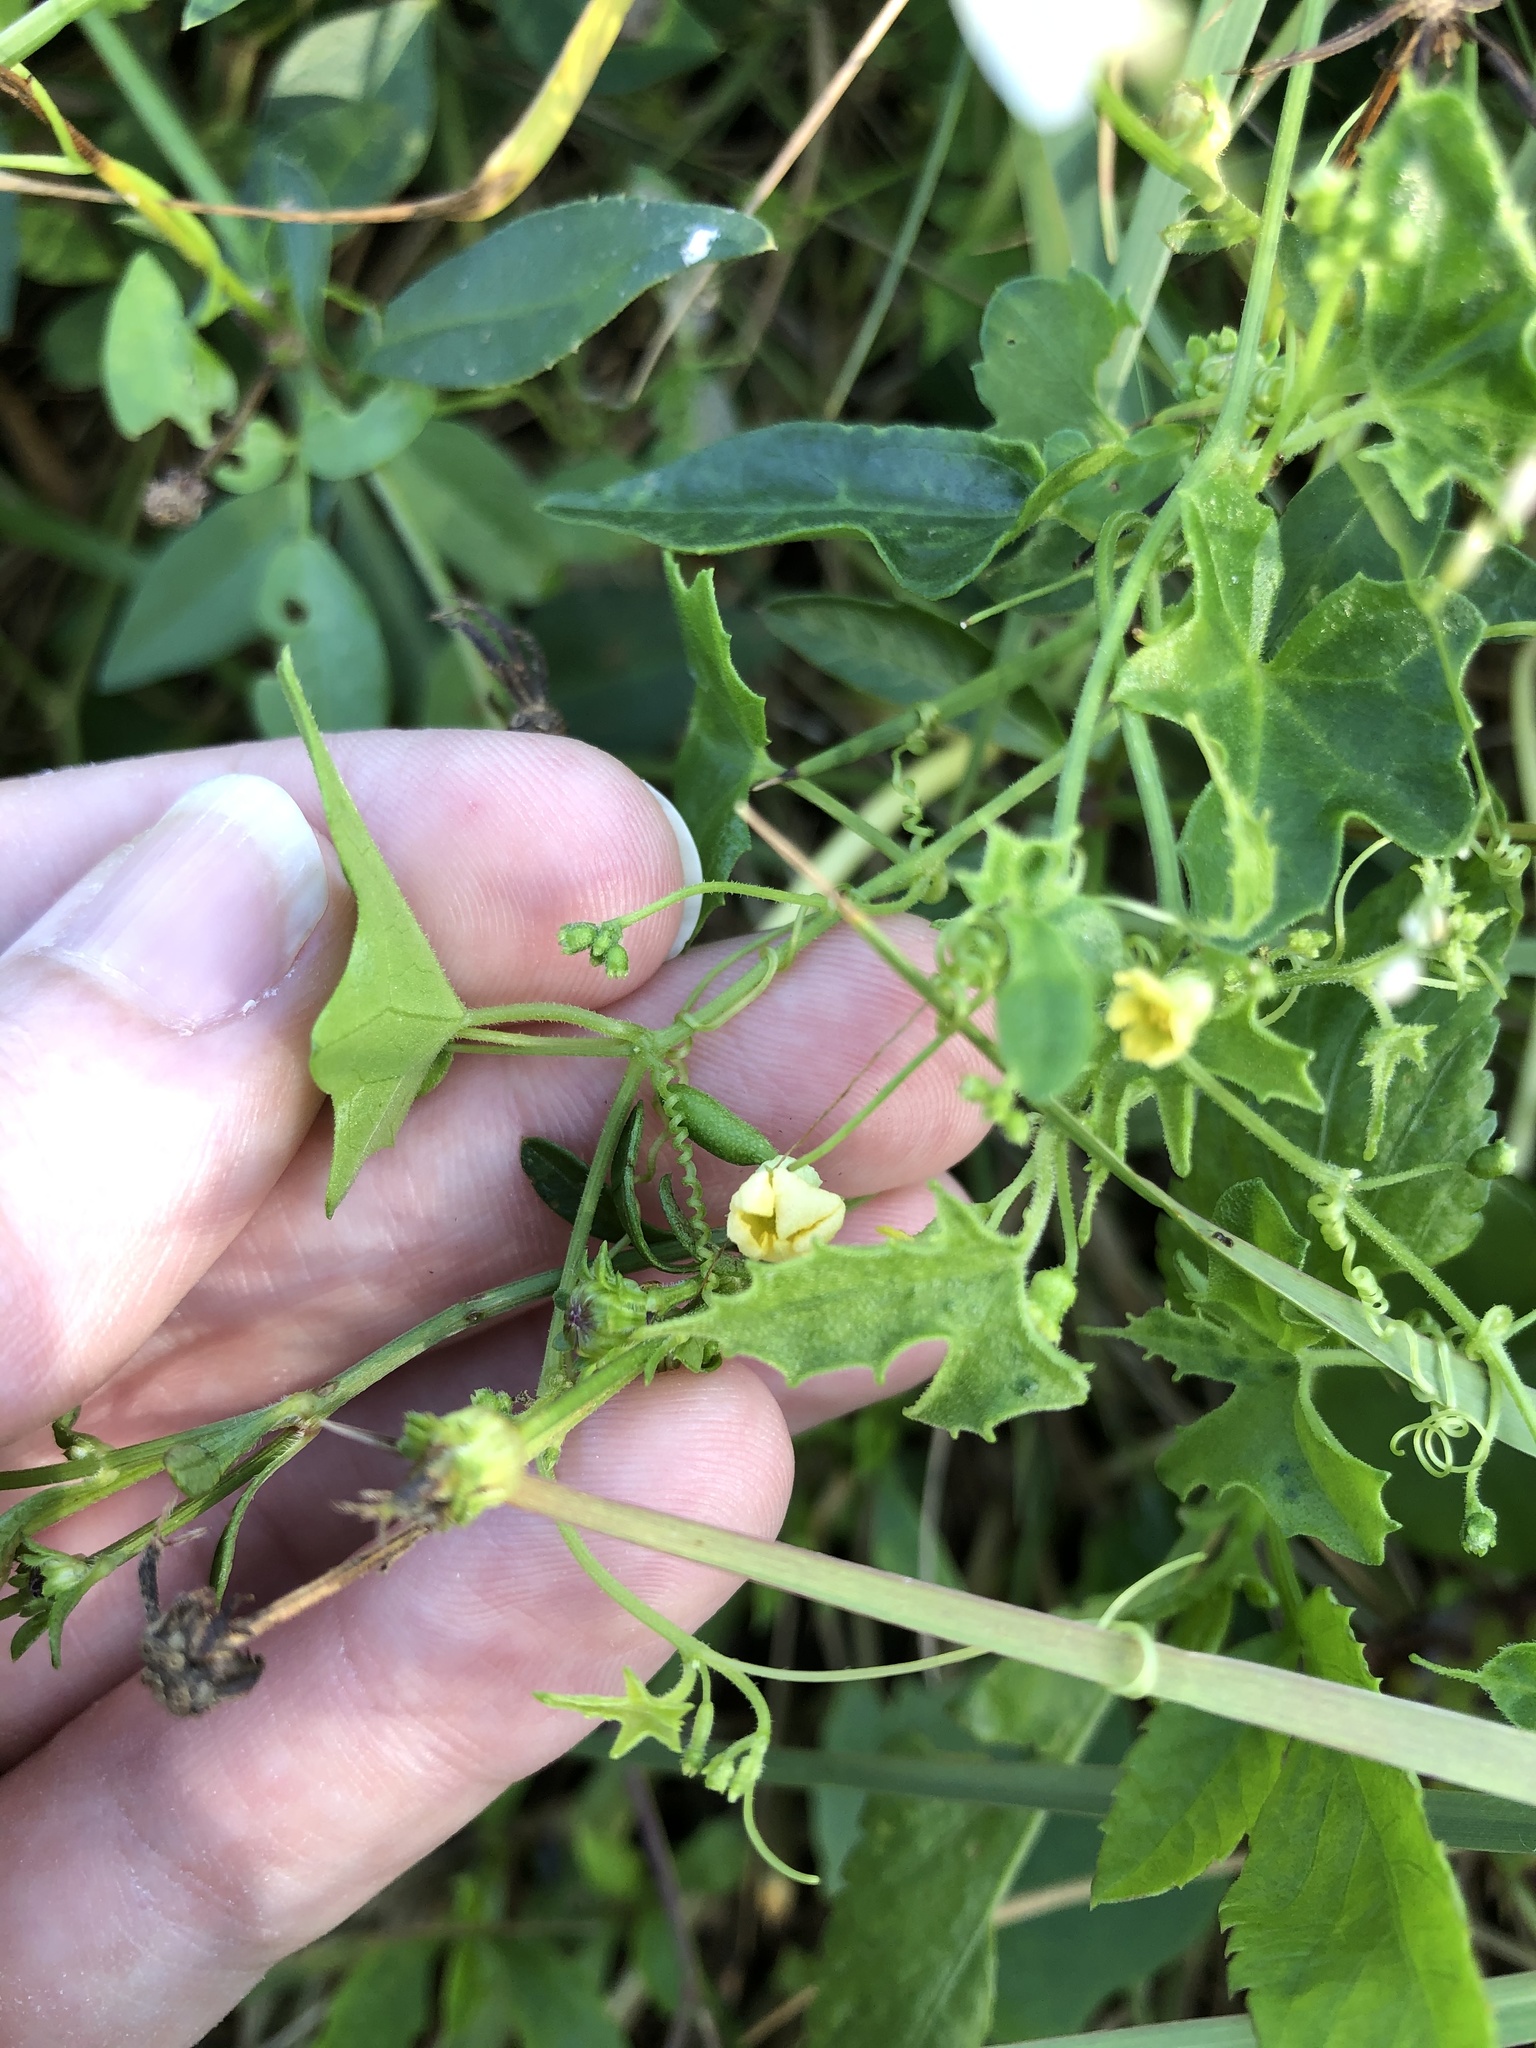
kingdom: Plantae
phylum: Tracheophyta
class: Magnoliopsida
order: Cucurbitales
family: Cucurbitaceae
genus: Melothria
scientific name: Melothria pendula
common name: Creeping-cucumber
